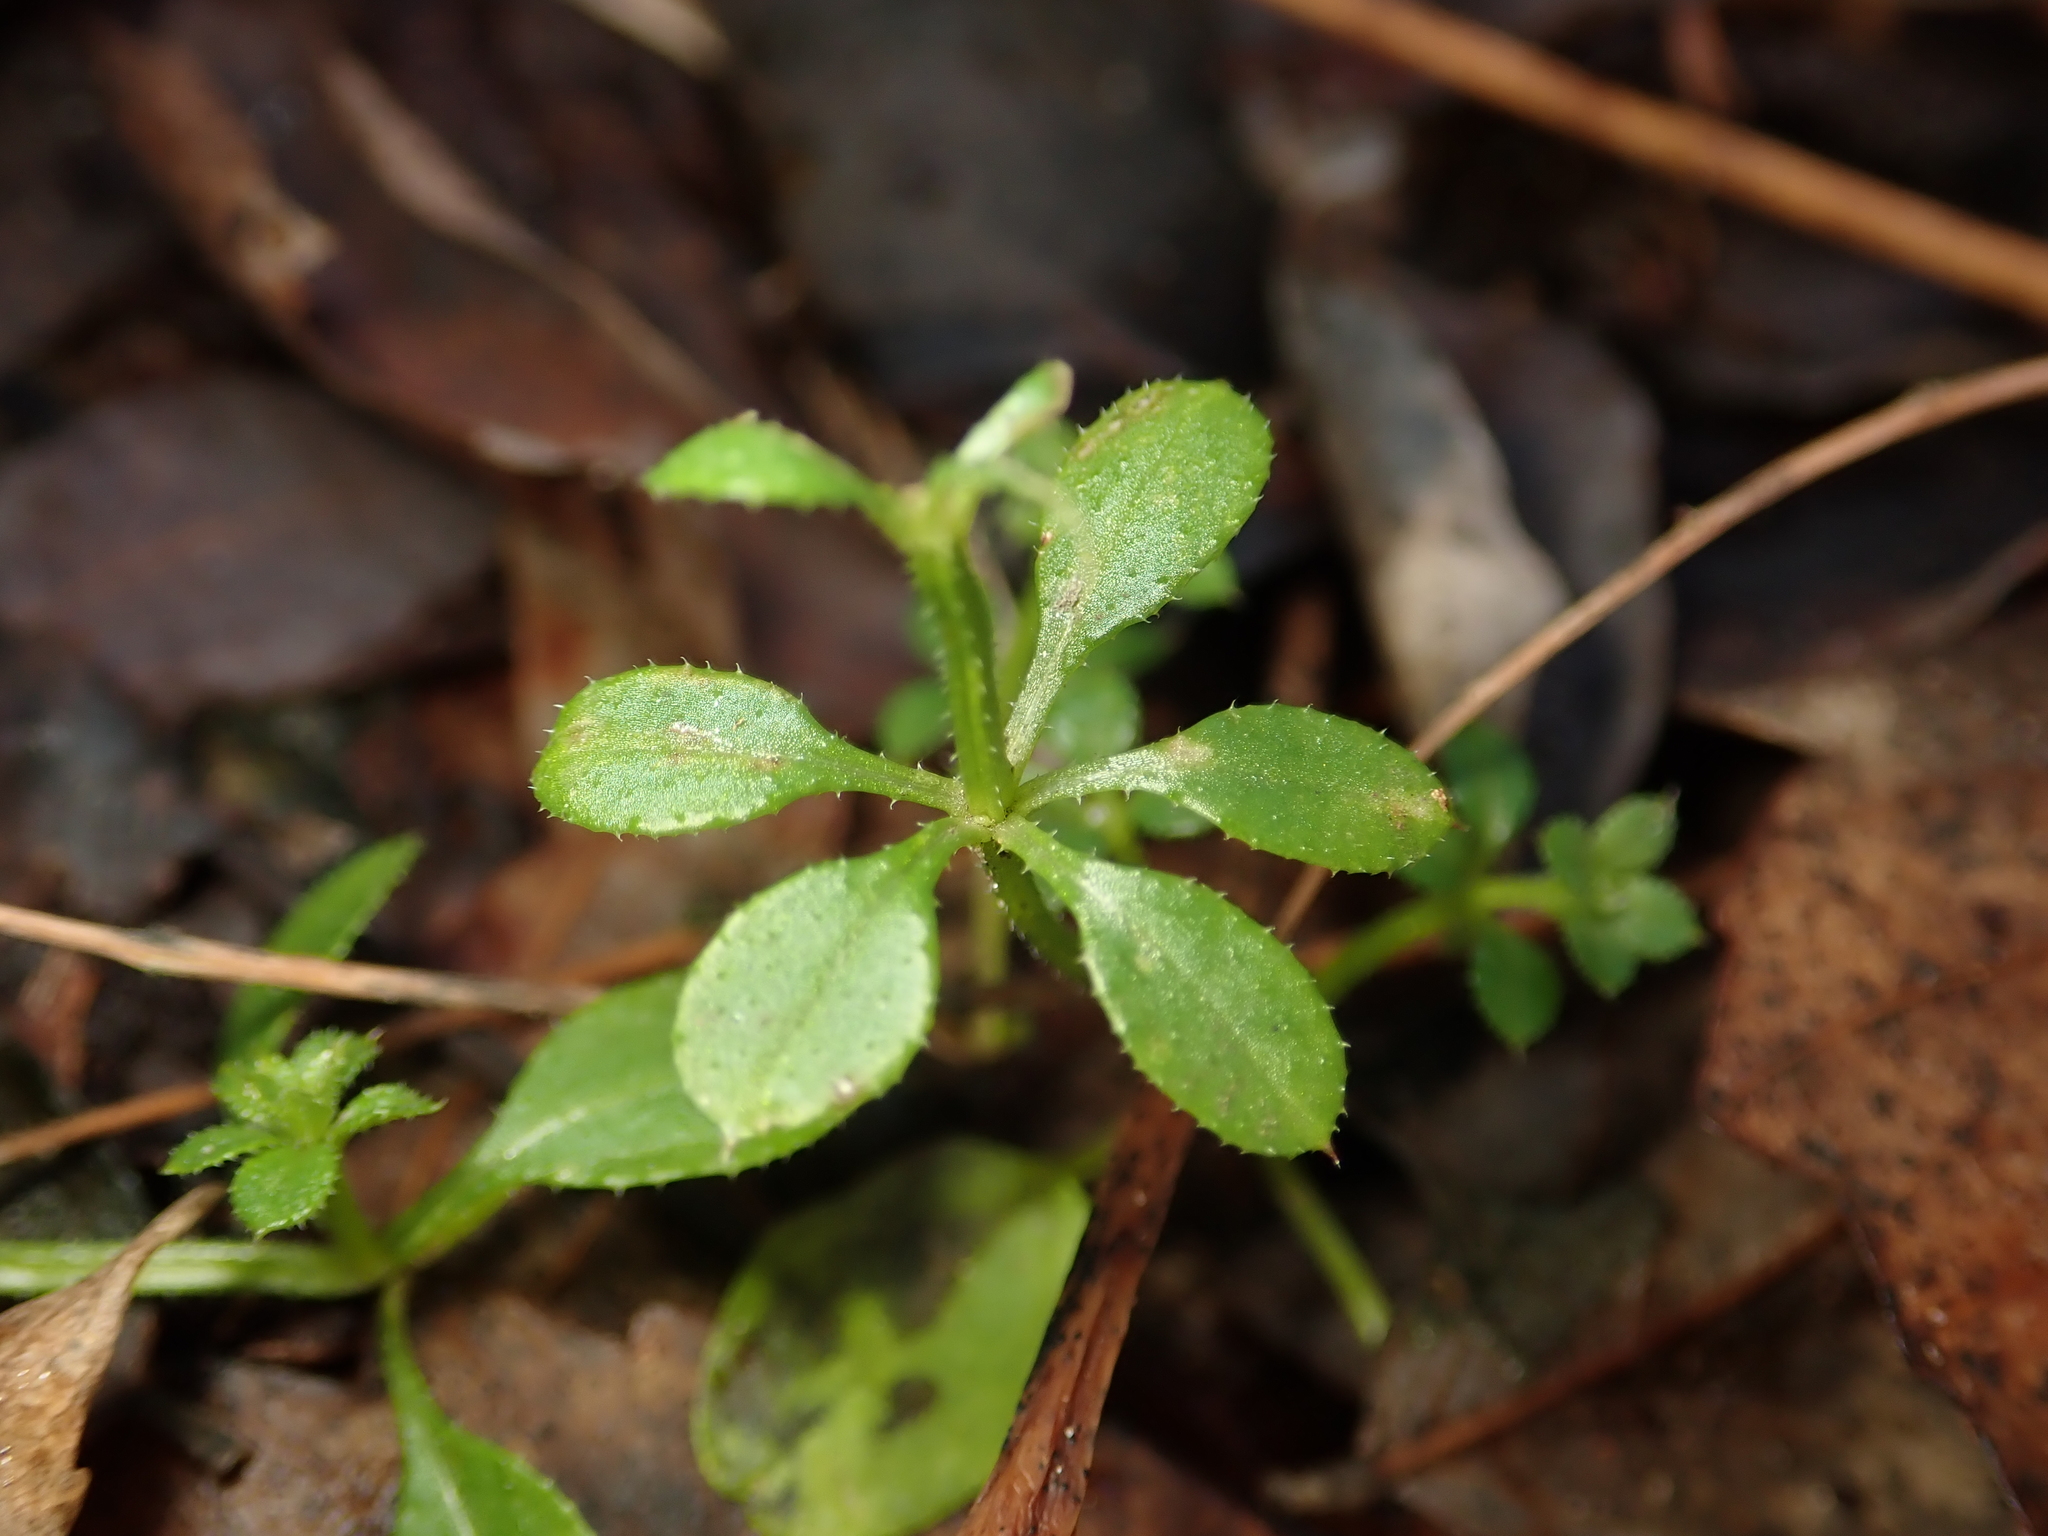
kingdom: Plantae
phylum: Tracheophyta
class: Magnoliopsida
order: Gentianales
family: Rubiaceae
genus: Galium
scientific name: Galium aparine
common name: Cleavers
